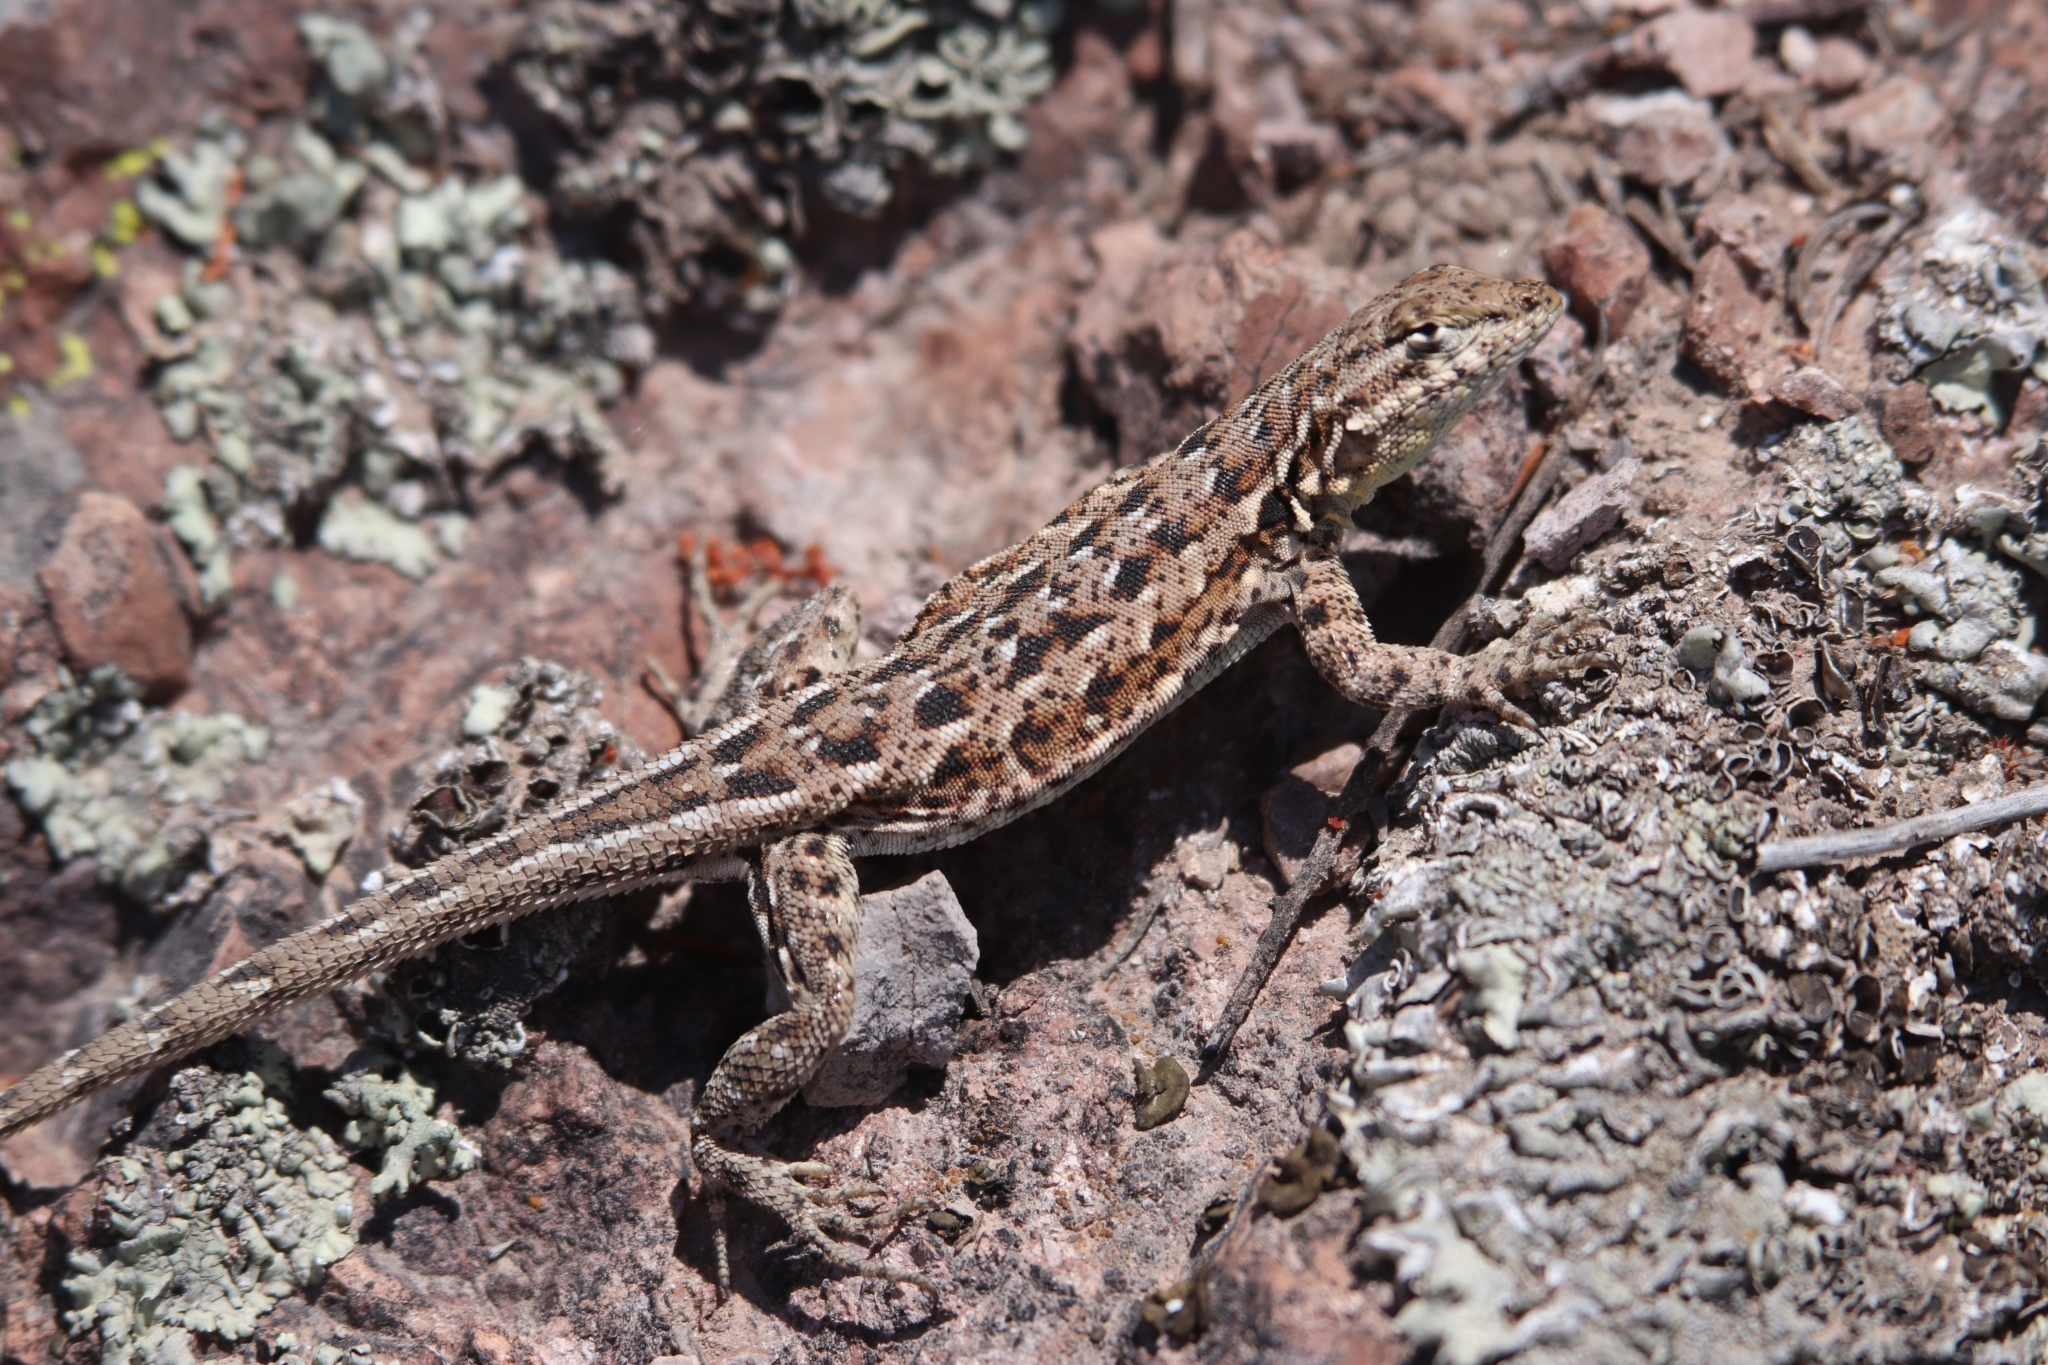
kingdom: Animalia
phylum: Chordata
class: Squamata
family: Phrynosomatidae
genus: Uta
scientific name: Uta stansburiana
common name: Side-blotched lizard
